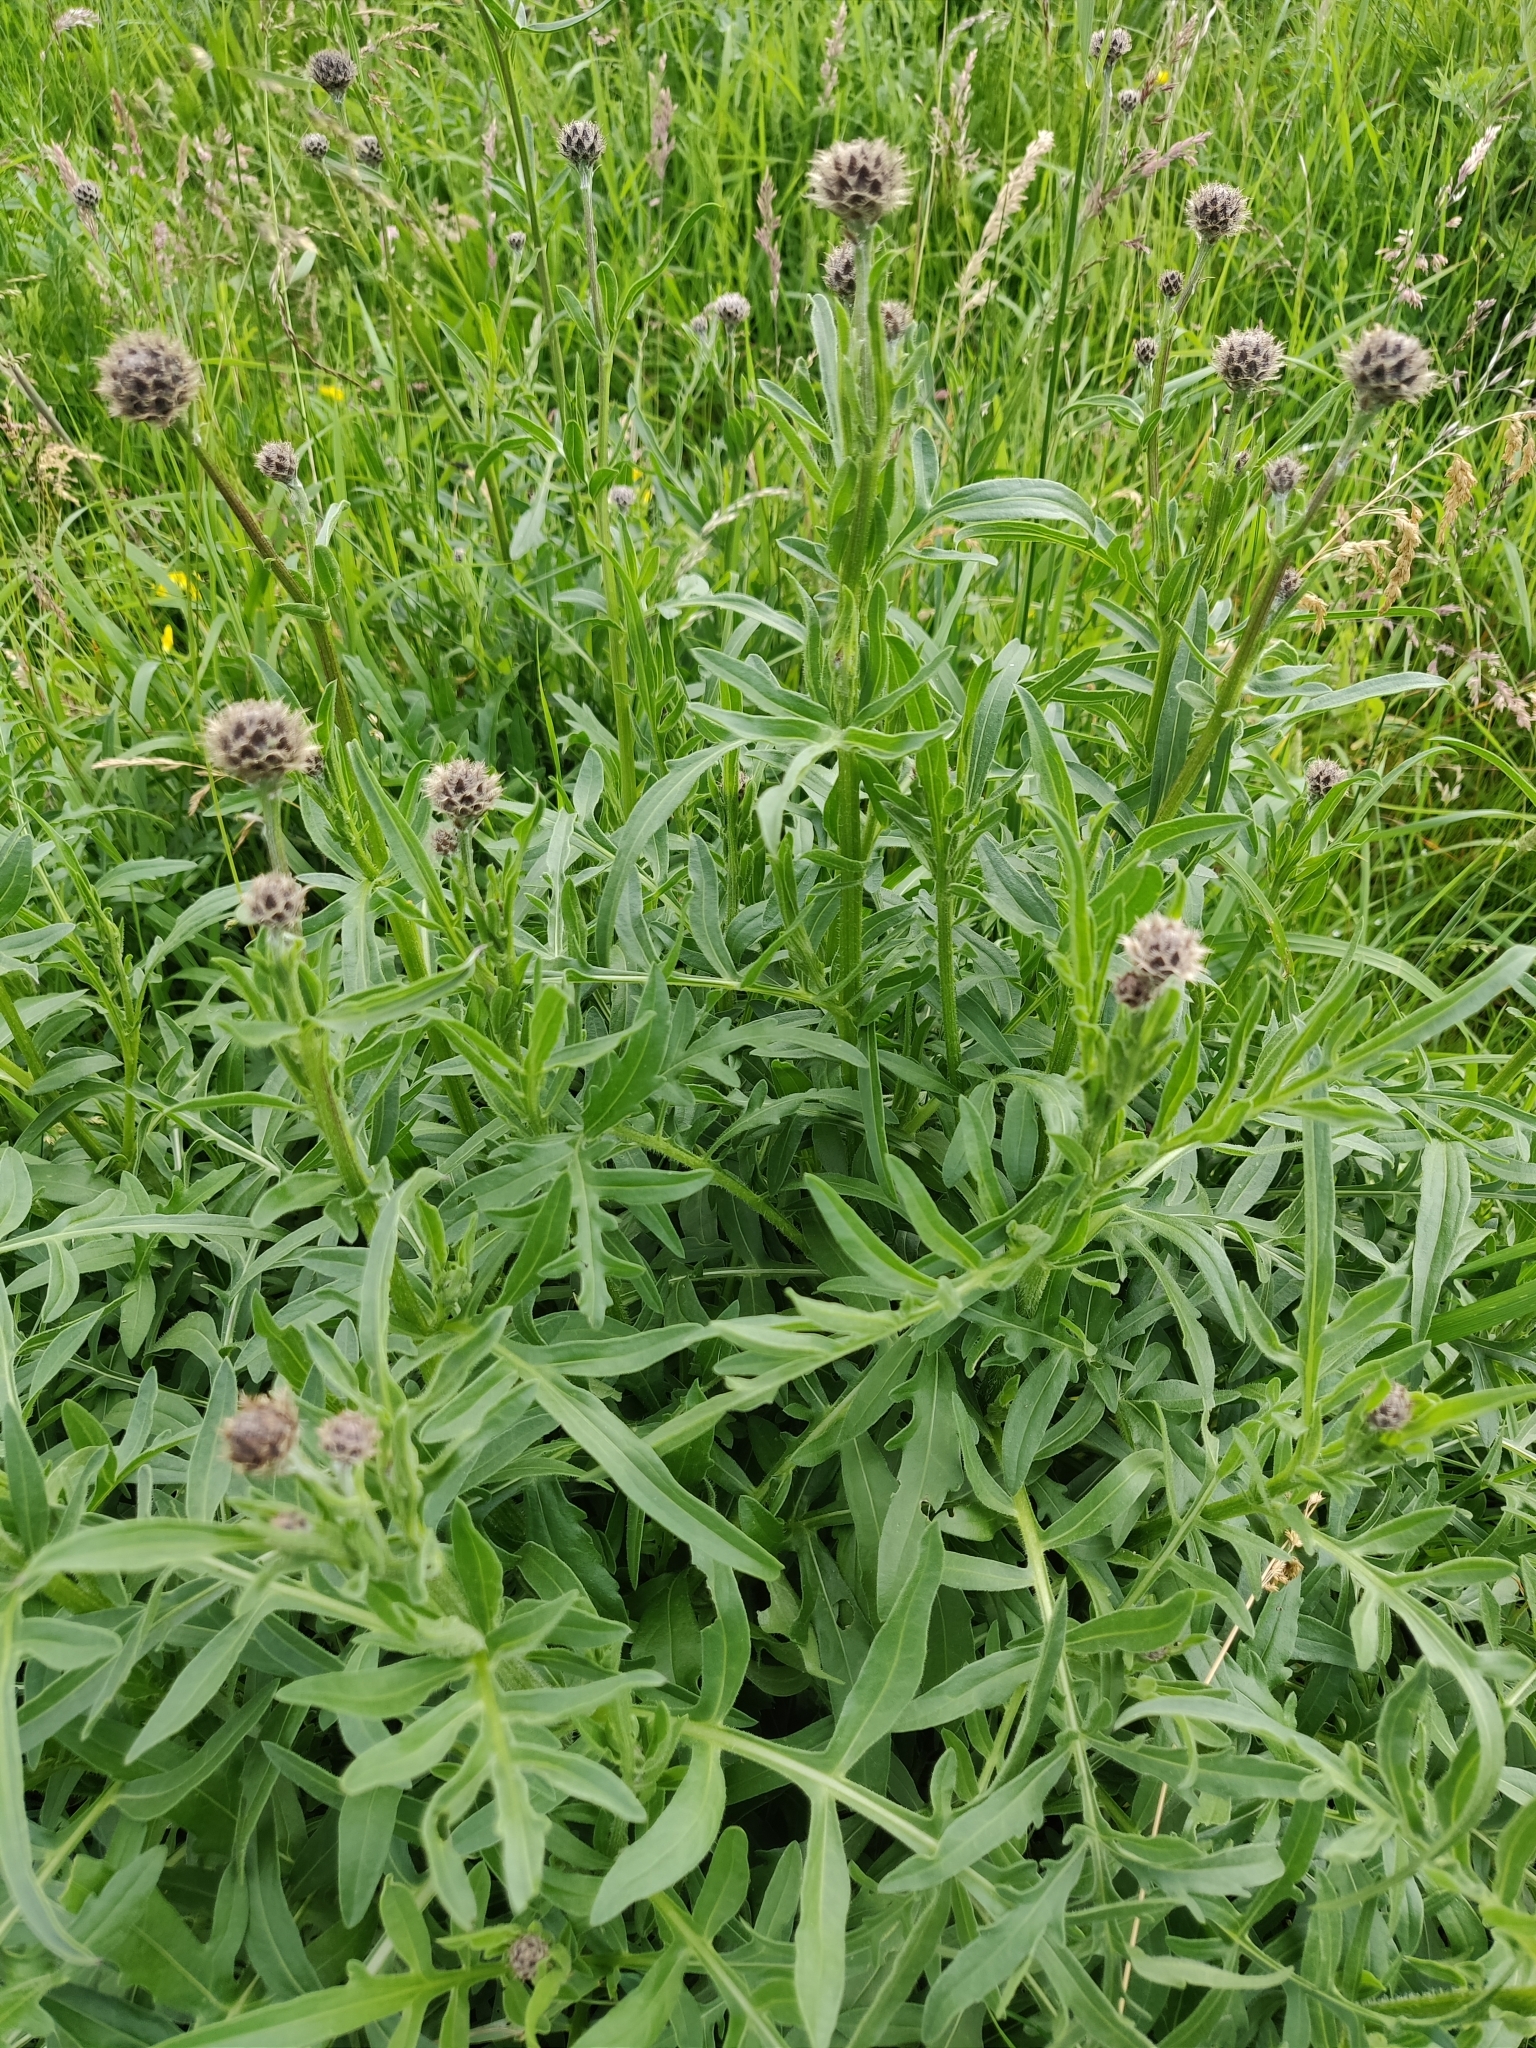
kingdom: Plantae
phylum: Tracheophyta
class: Magnoliopsida
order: Asterales
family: Asteraceae
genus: Centaurea
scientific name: Centaurea scabiosa
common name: Greater knapweed
